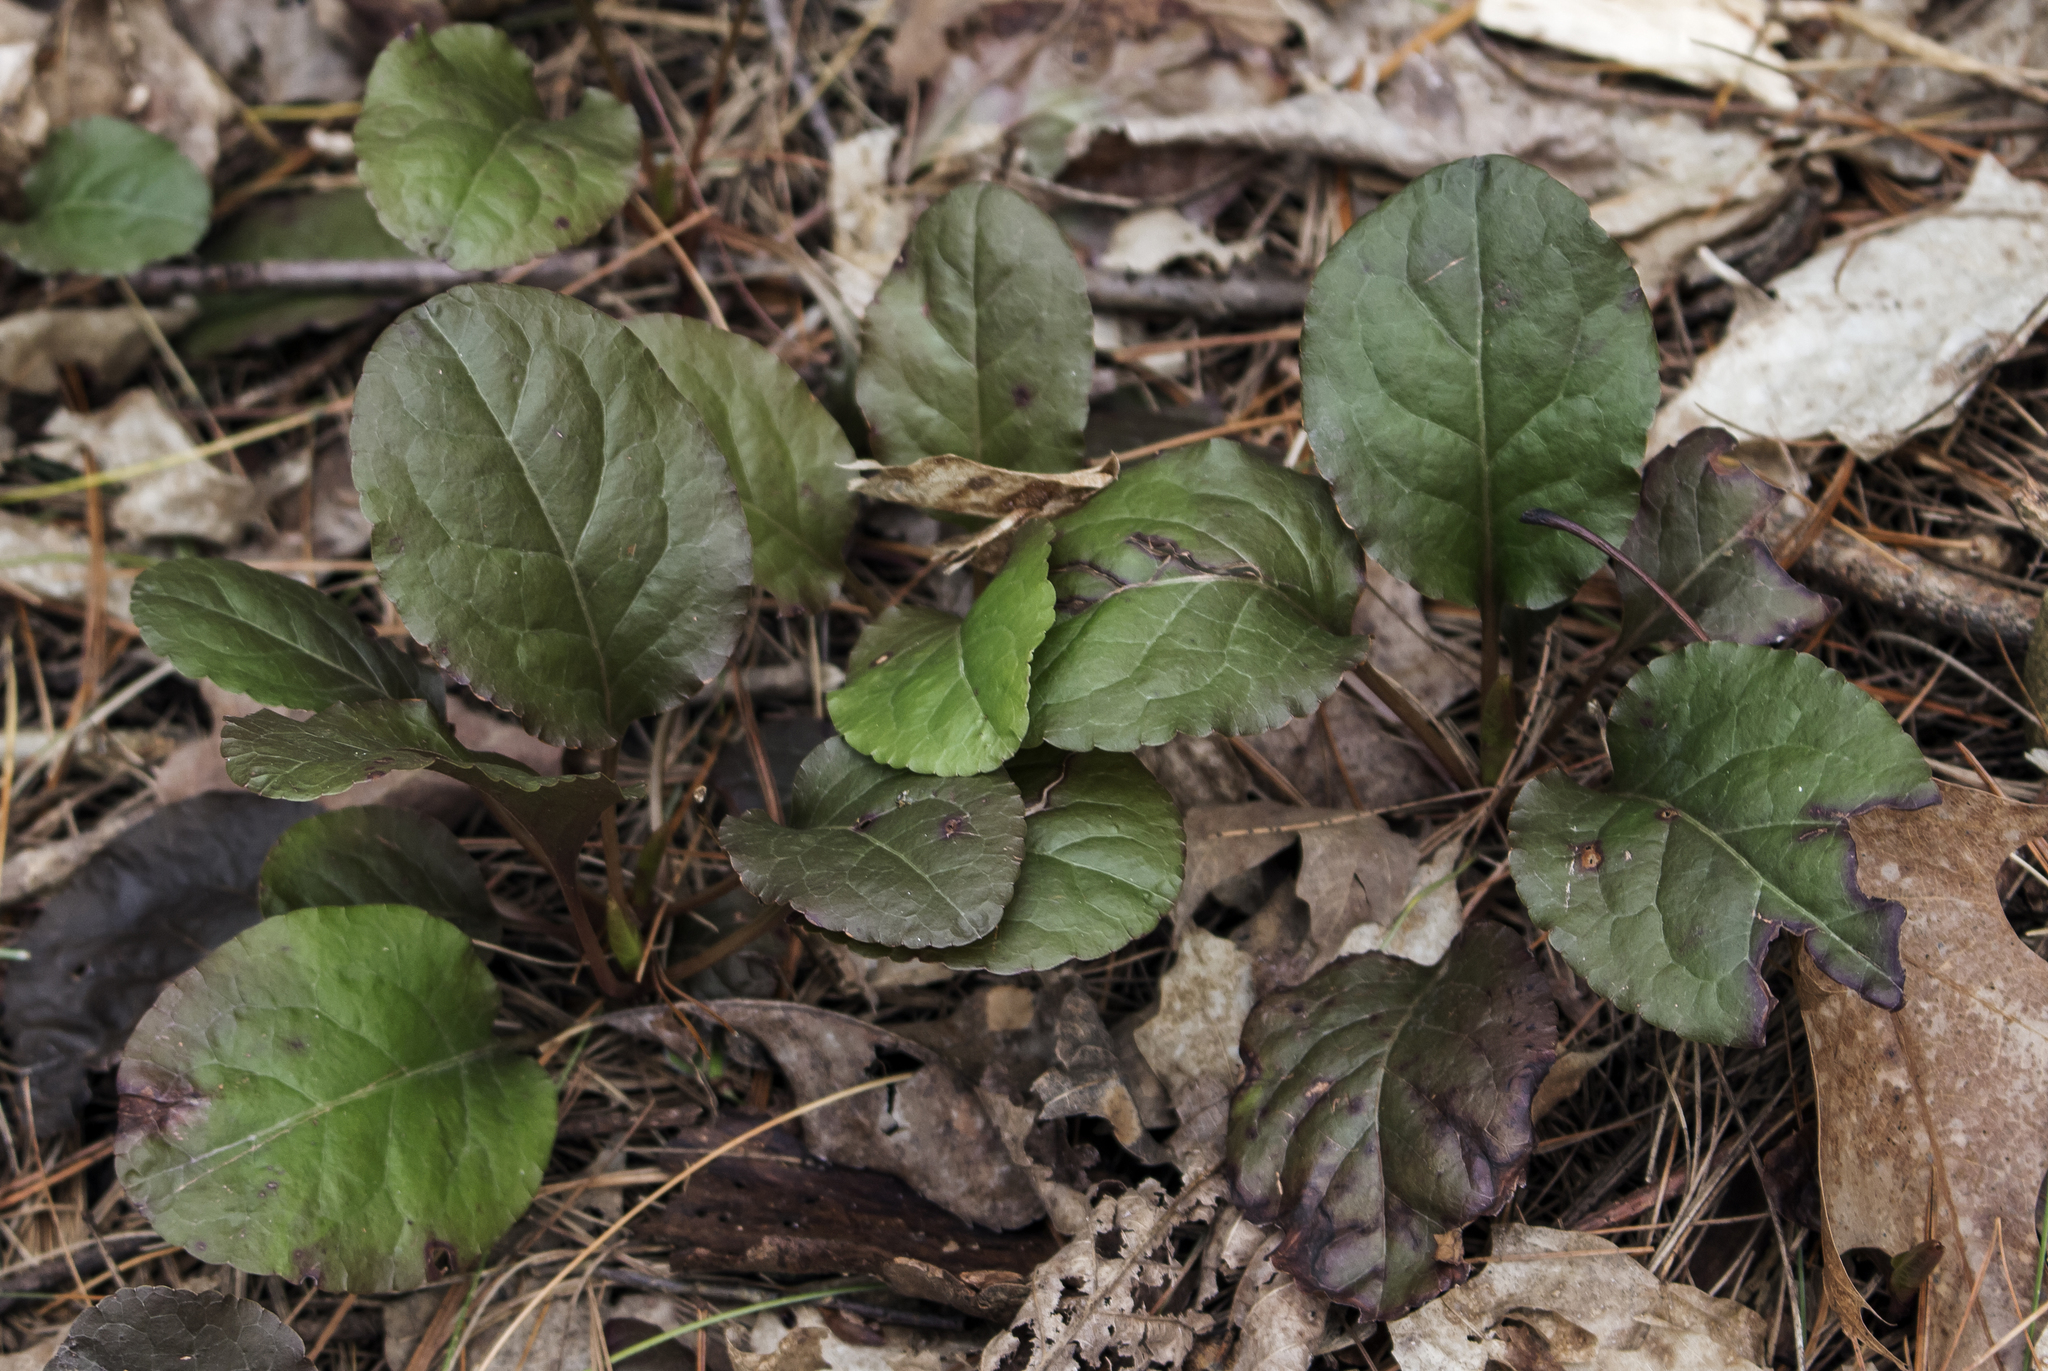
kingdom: Plantae
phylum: Tracheophyta
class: Magnoliopsida
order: Ericales
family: Ericaceae
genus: Pyrola
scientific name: Pyrola elliptica
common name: Shinleaf
